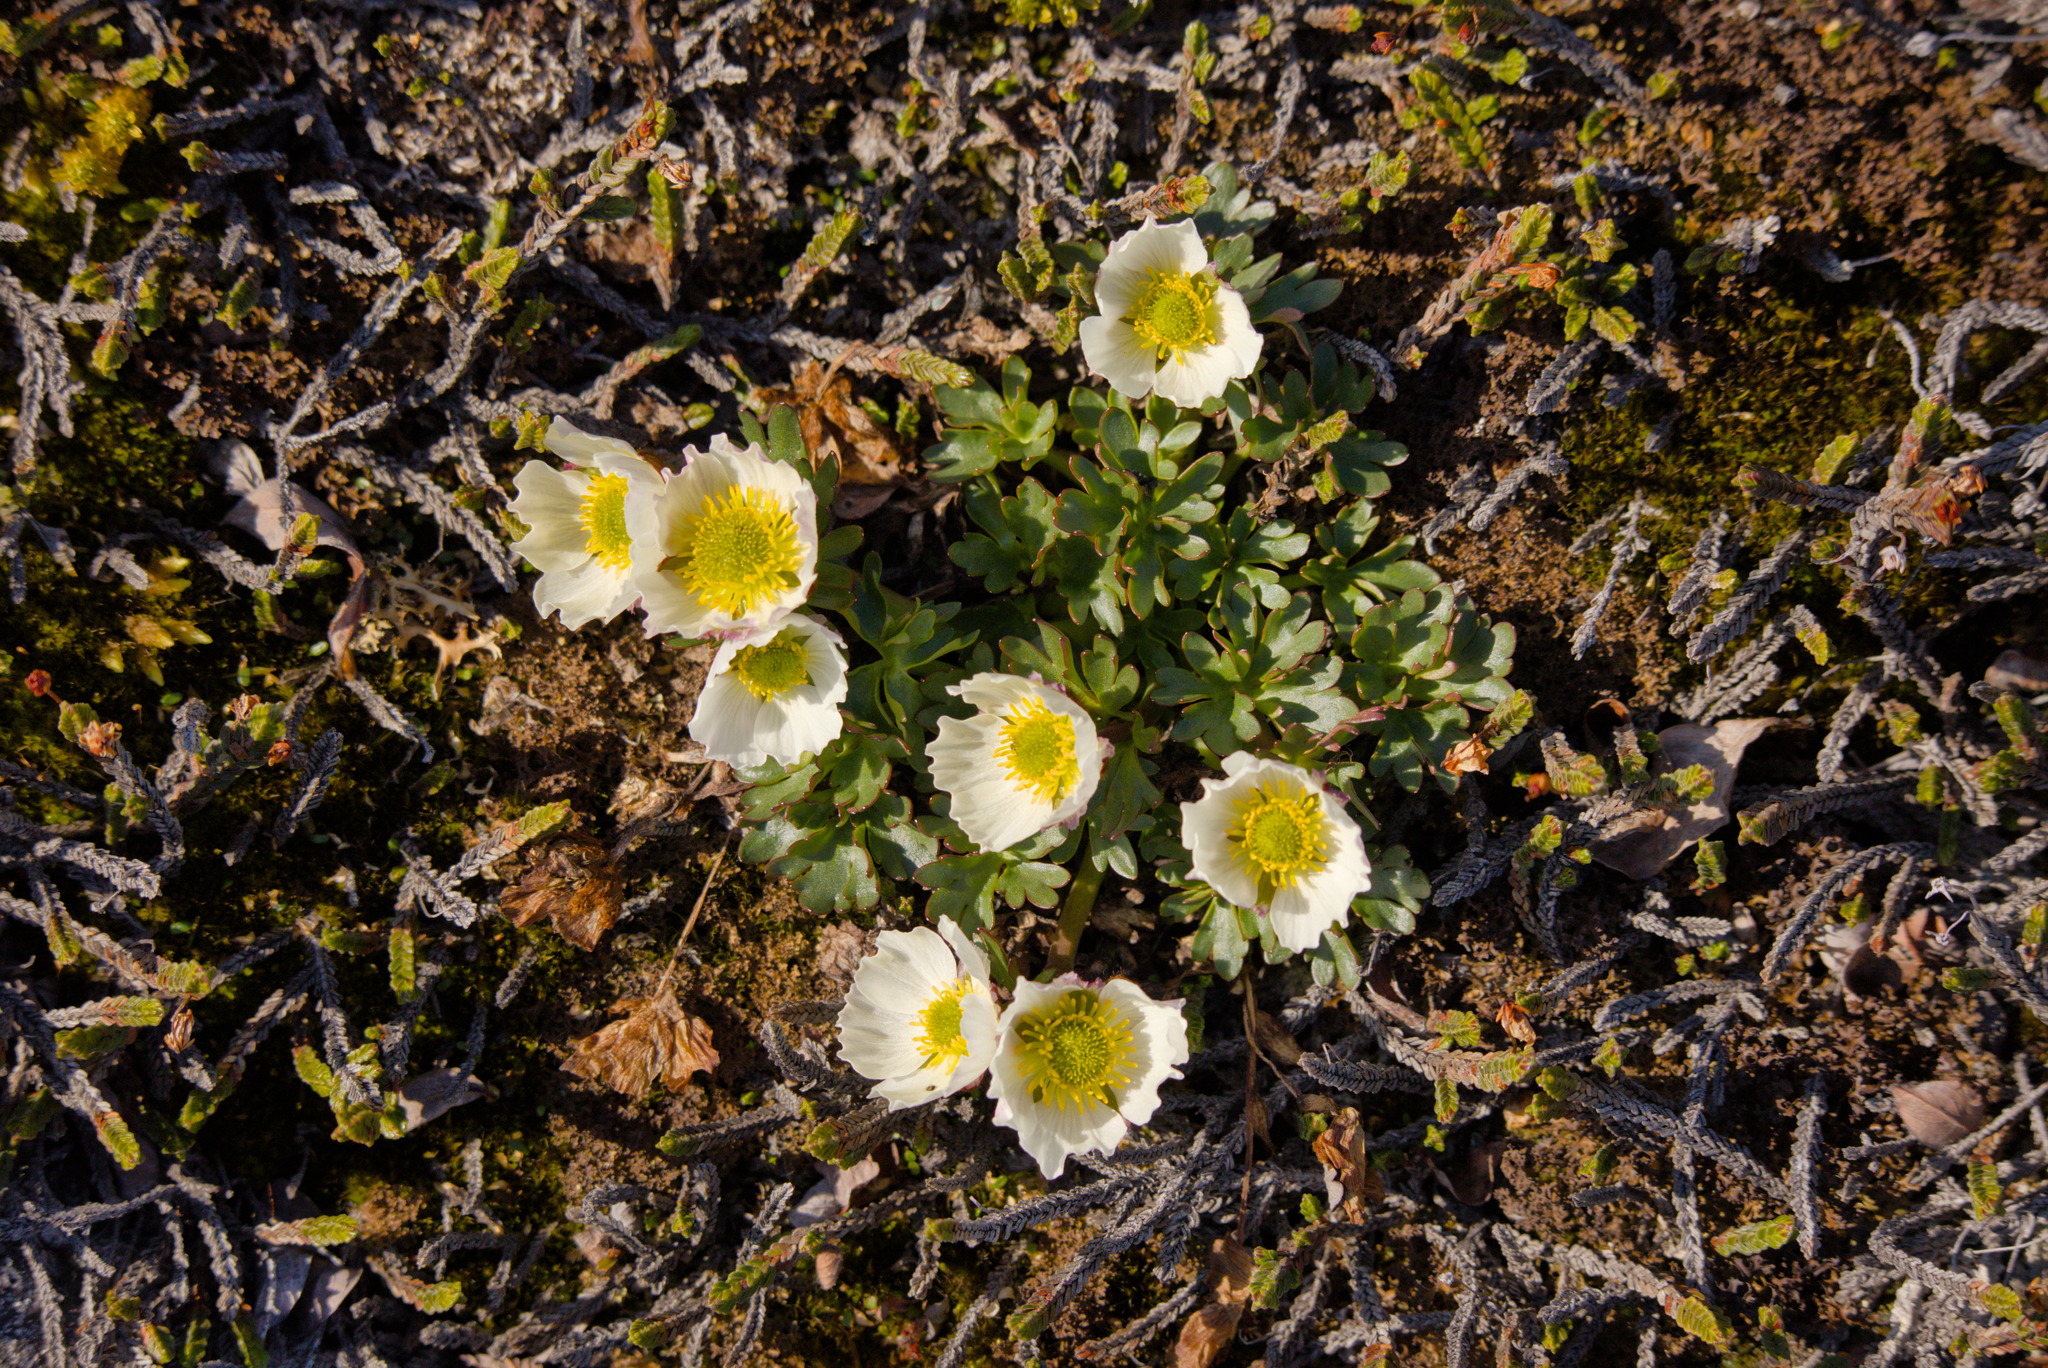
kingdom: Plantae
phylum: Tracheophyta
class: Magnoliopsida
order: Ranunculales
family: Ranunculaceae
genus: Ranunculus
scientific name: Ranunculus glacialis
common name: Glacier buttercup
